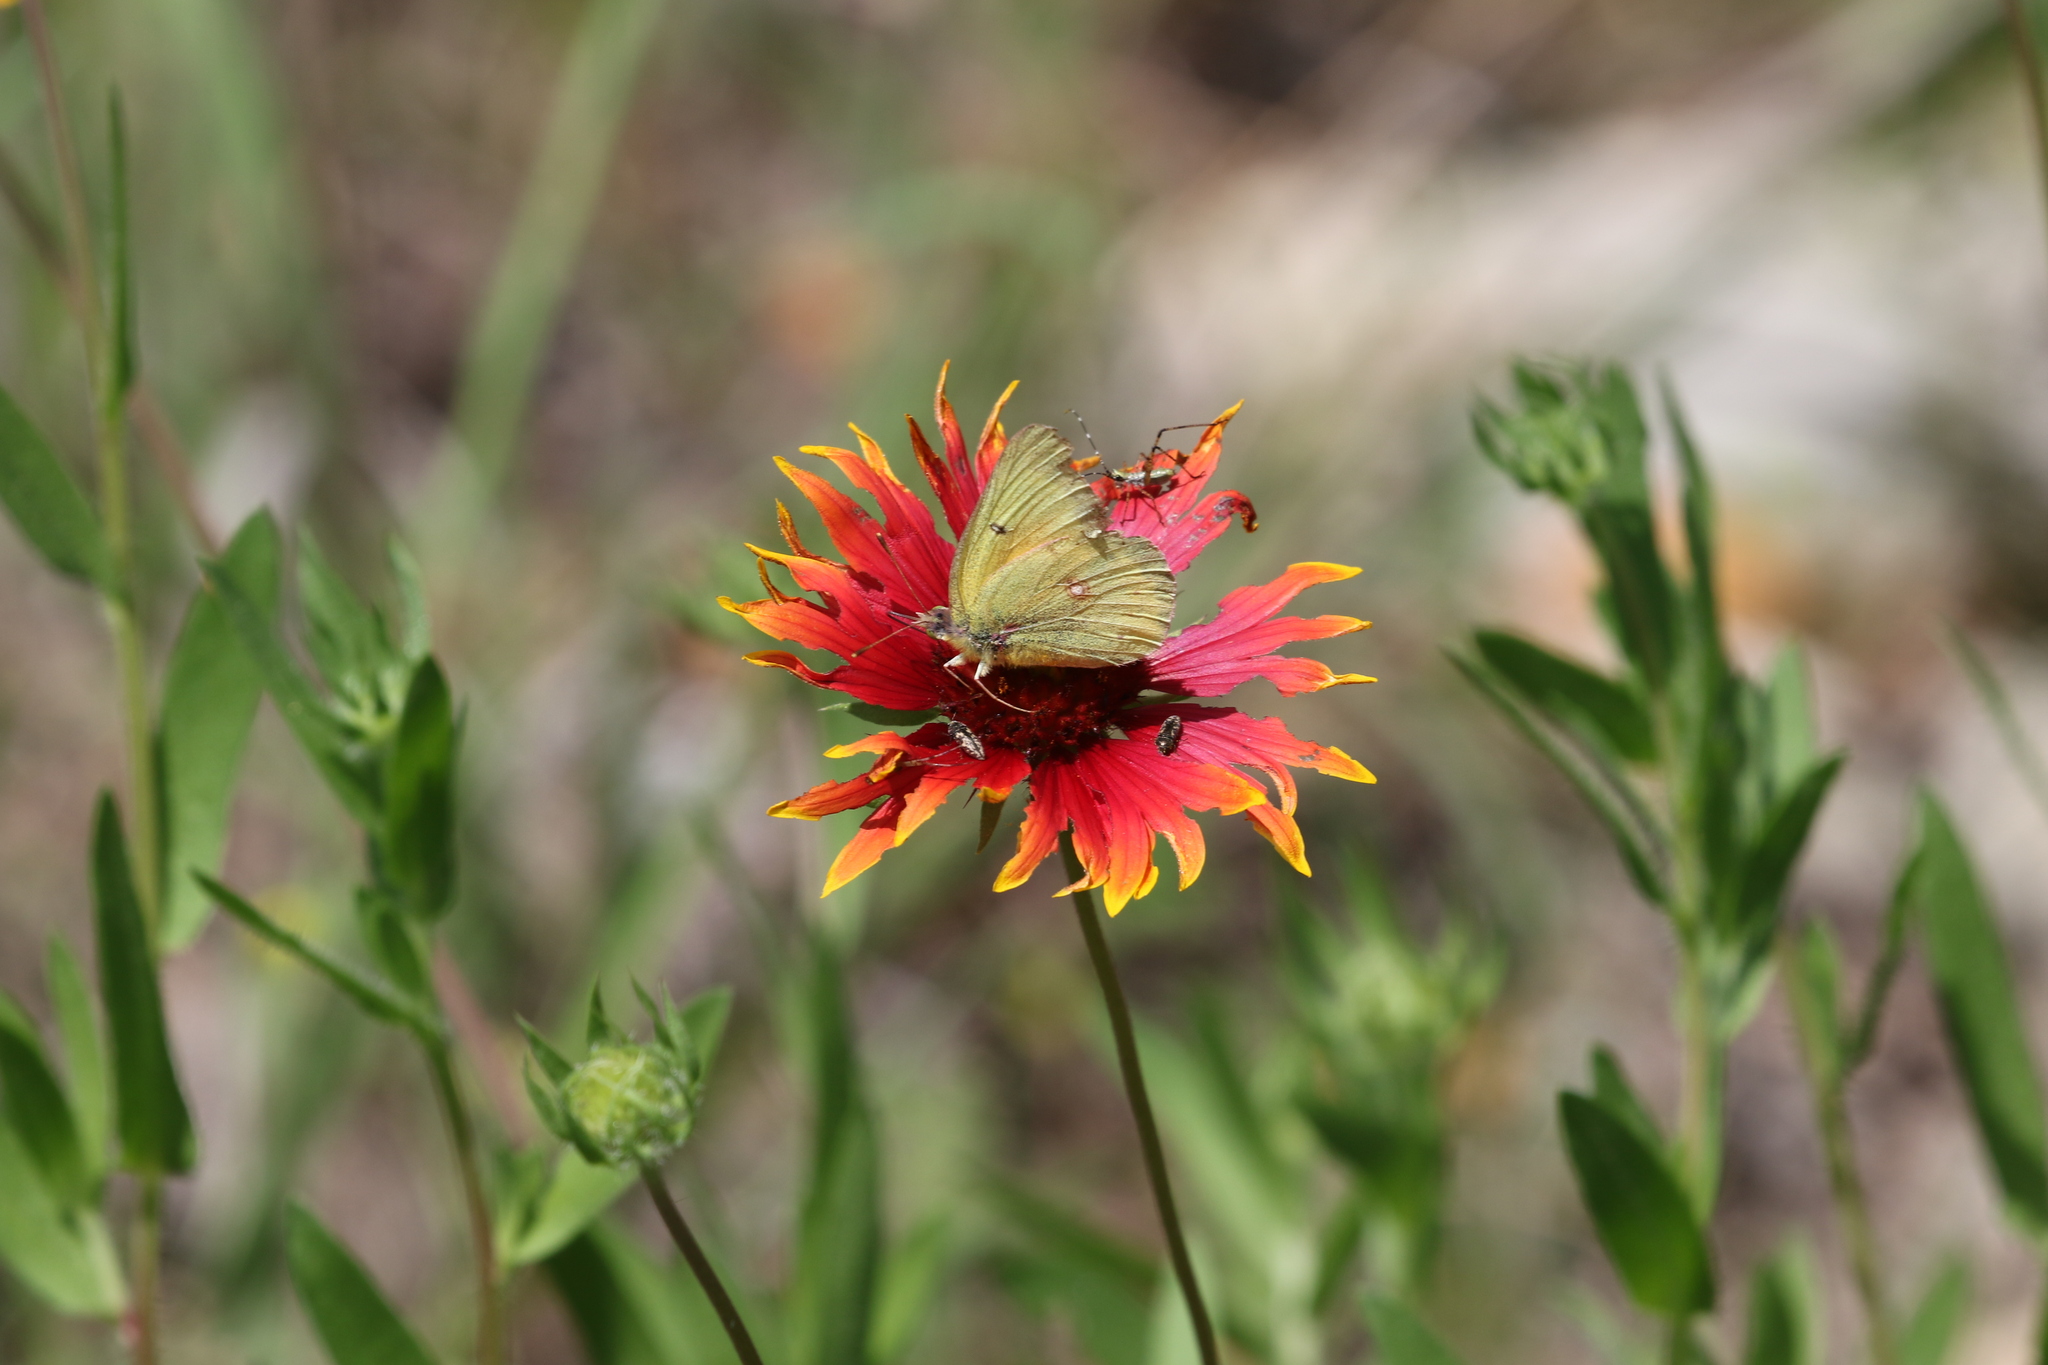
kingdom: Animalia
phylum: Arthropoda
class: Insecta
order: Lepidoptera
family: Pieridae
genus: Colias
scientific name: Colias eurytheme
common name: Alfalfa butterfly
